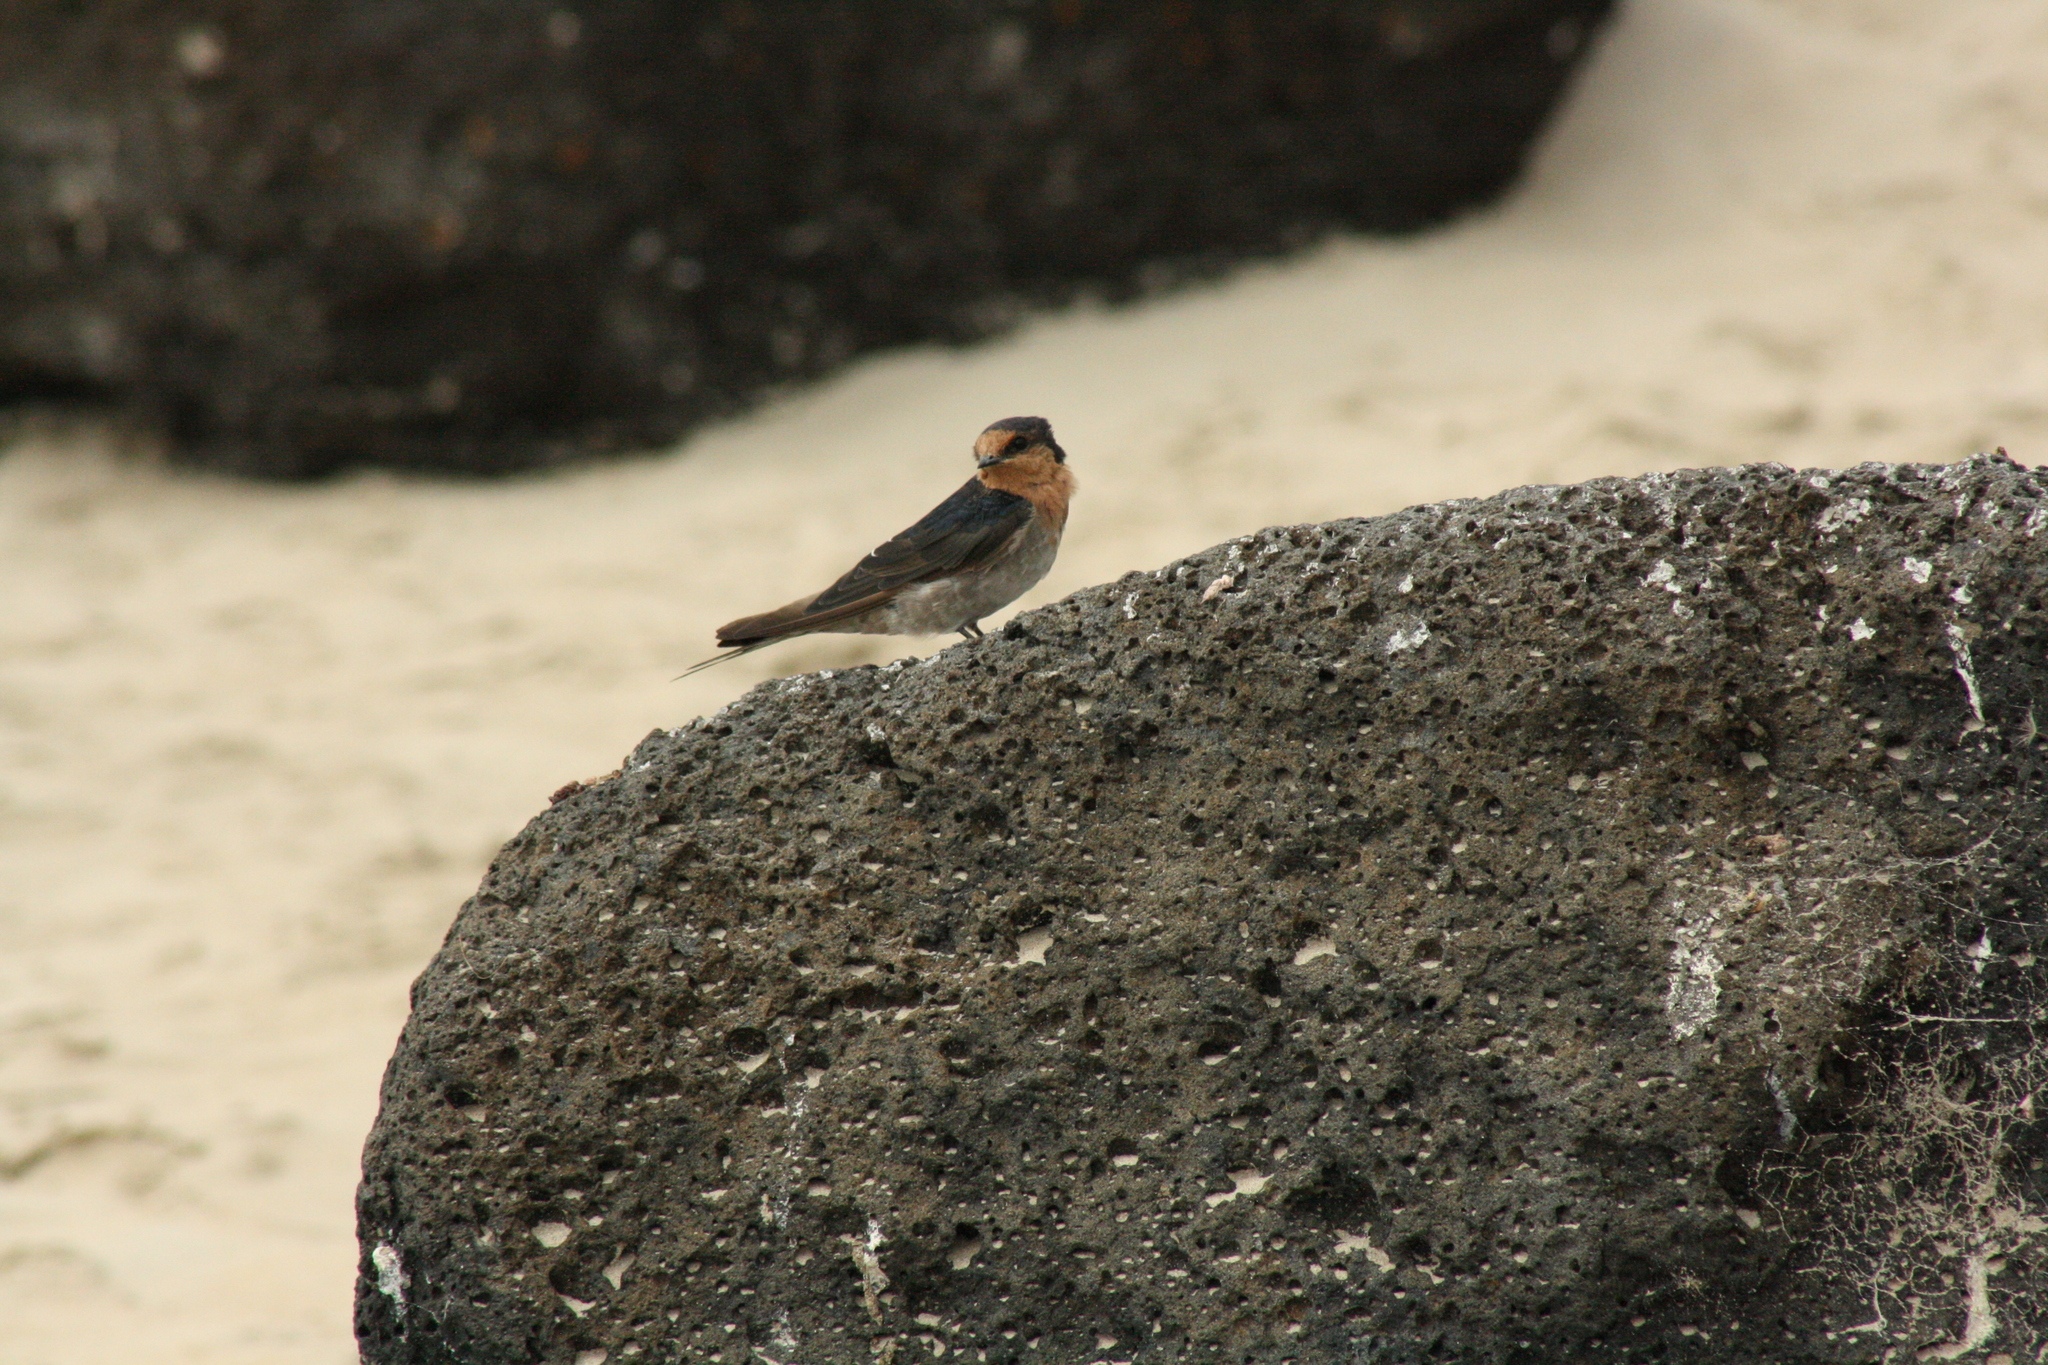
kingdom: Animalia
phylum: Chordata
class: Aves
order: Passeriformes
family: Hirundinidae
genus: Hirundo
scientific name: Hirundo neoxena
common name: Welcome swallow
